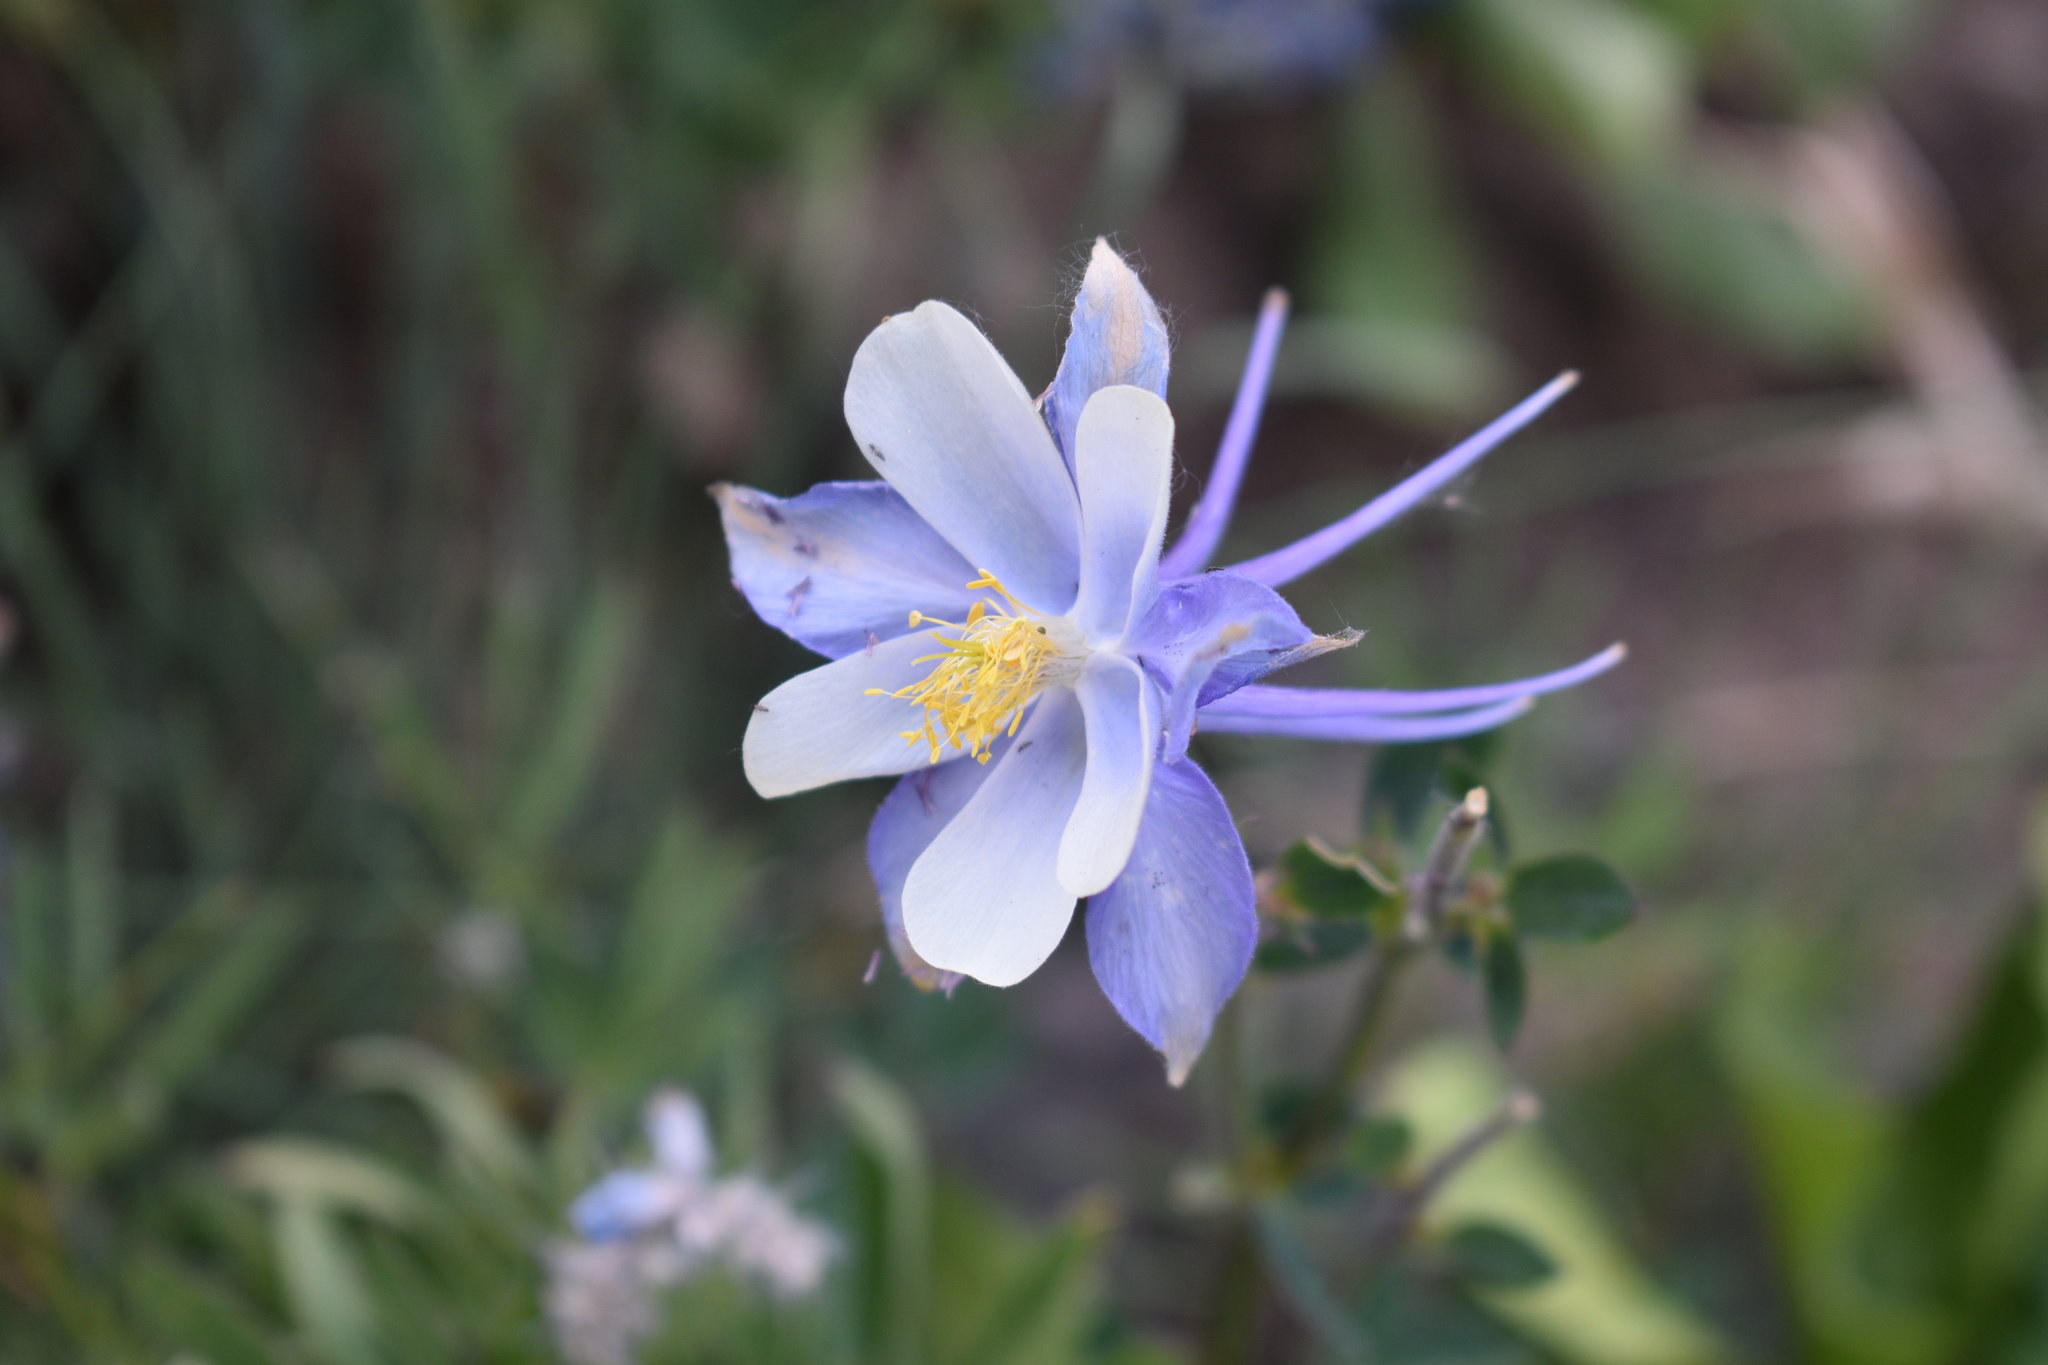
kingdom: Plantae
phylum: Tracheophyta
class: Magnoliopsida
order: Ranunculales
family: Ranunculaceae
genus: Aquilegia
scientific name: Aquilegia coerulea
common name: Rocky mountain columbine
